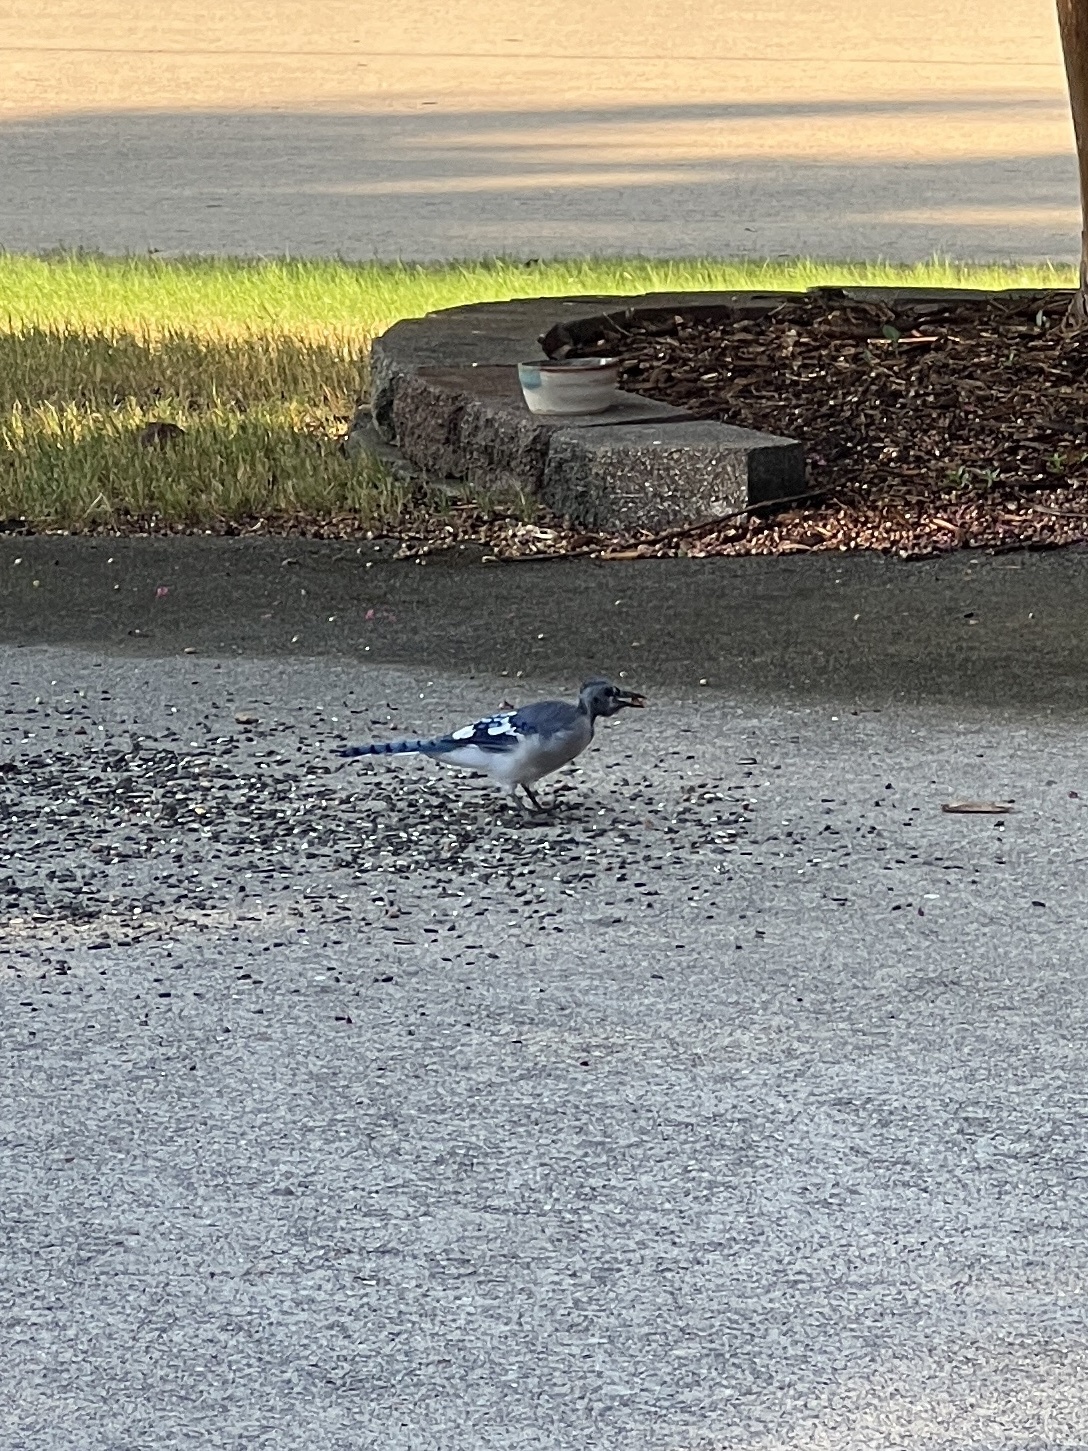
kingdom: Animalia
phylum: Chordata
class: Aves
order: Passeriformes
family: Corvidae
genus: Cyanocitta
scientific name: Cyanocitta cristata
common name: Blue jay
